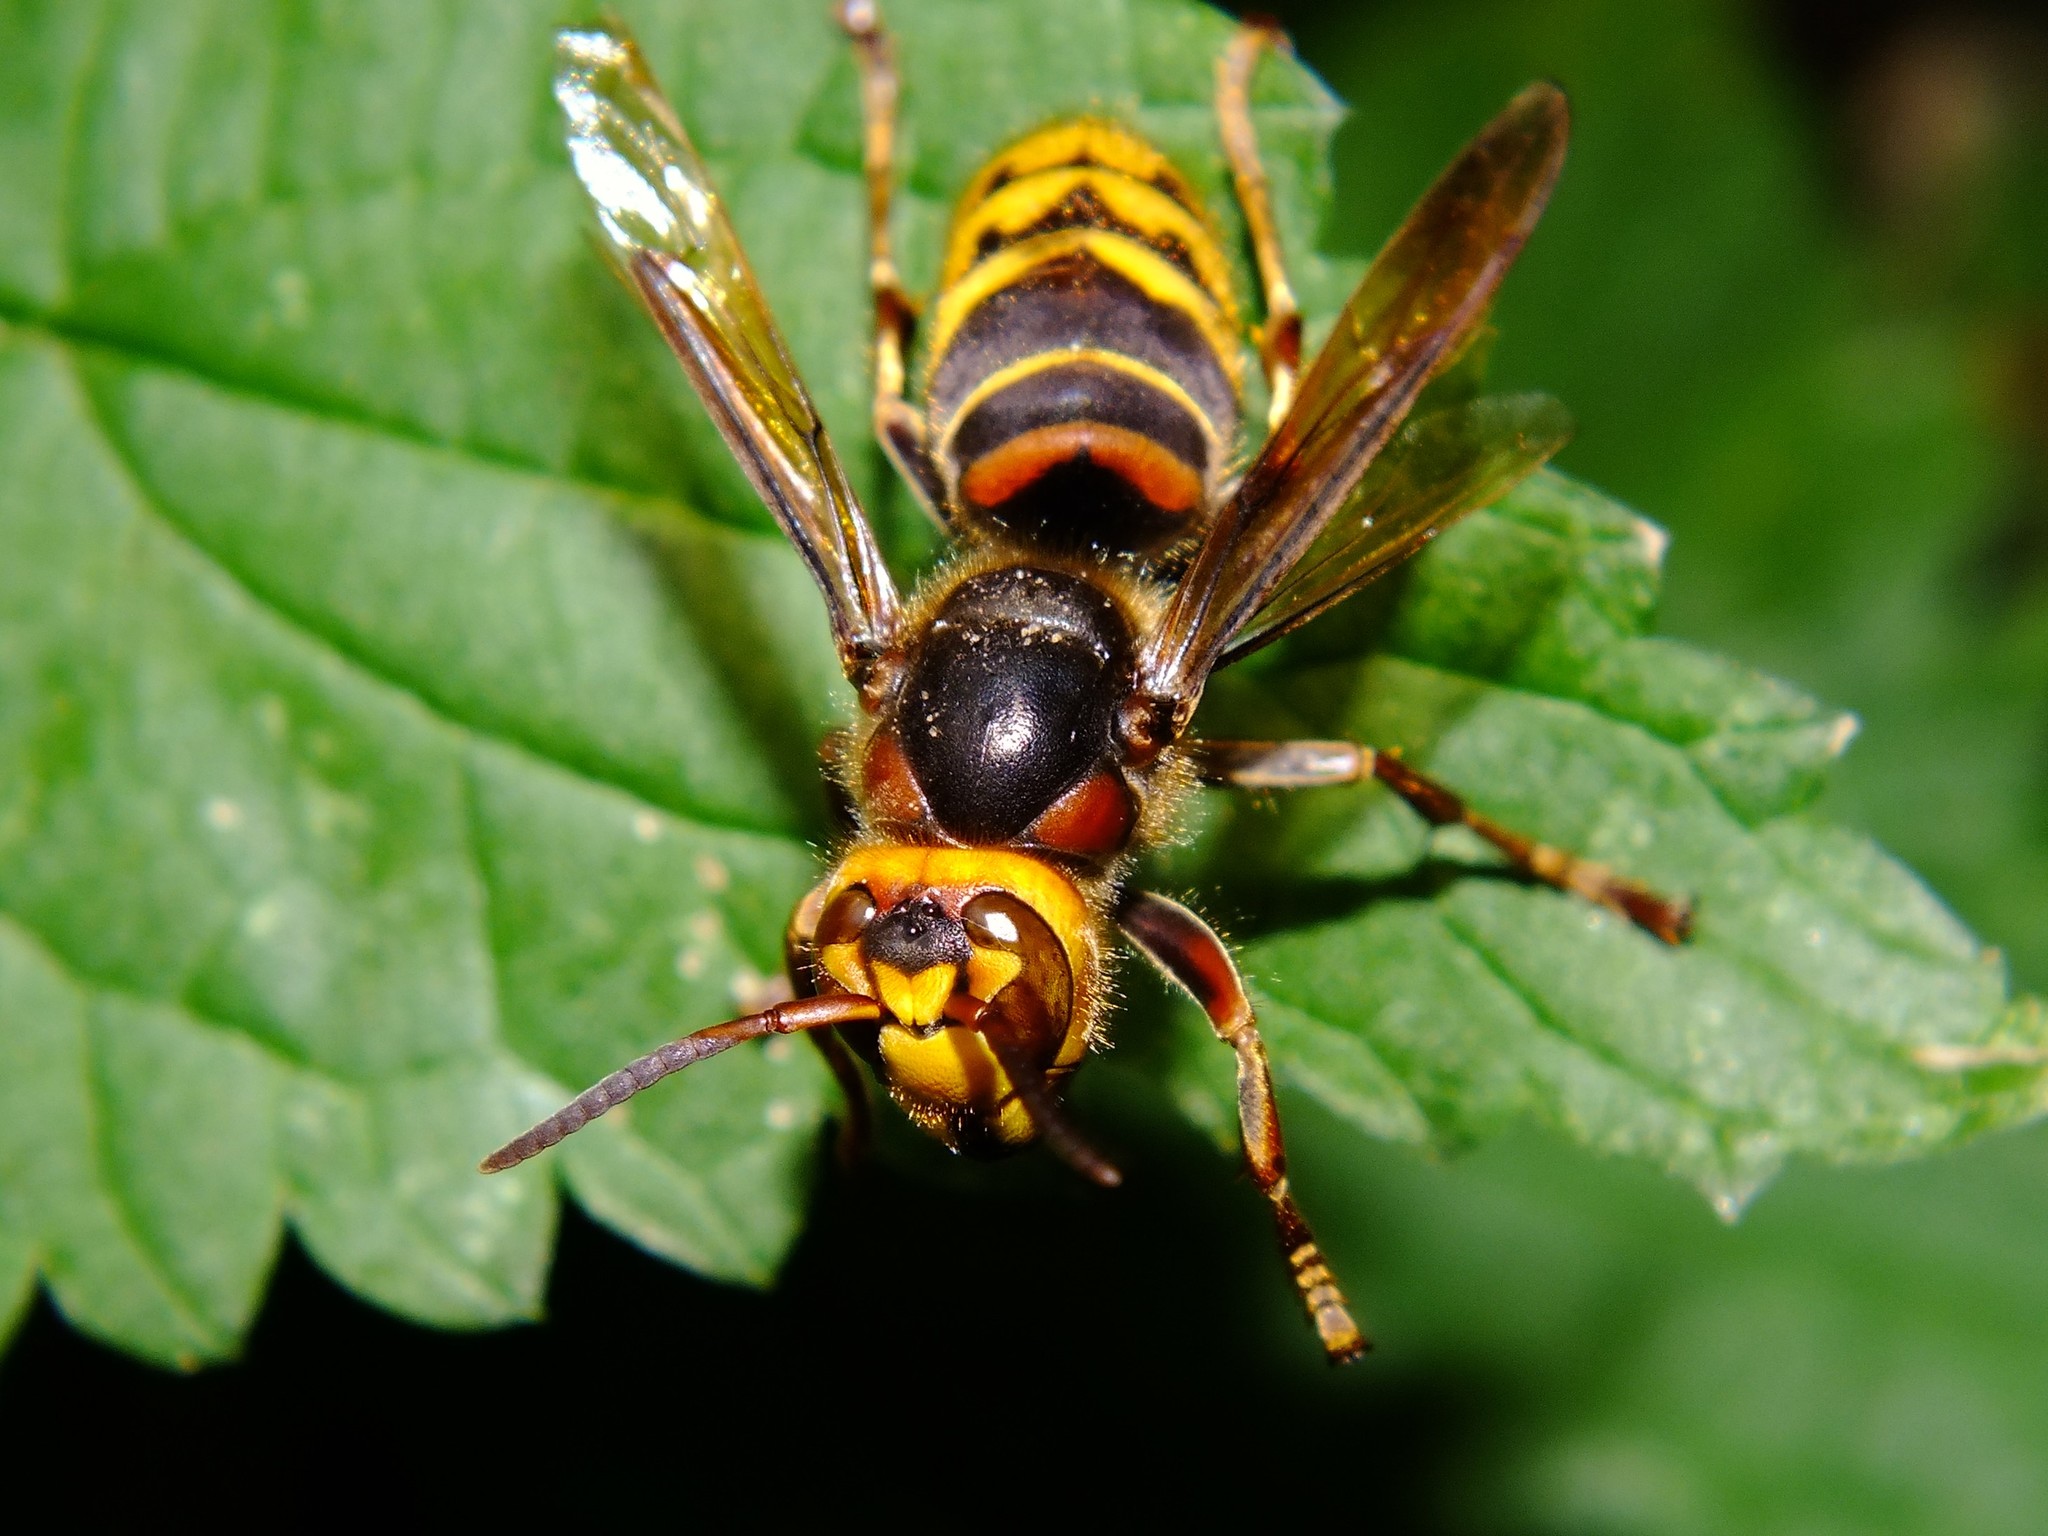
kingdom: Animalia
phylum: Arthropoda
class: Insecta
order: Hymenoptera
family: Vespidae
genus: Vespa
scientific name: Vespa crabro
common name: Hornet
